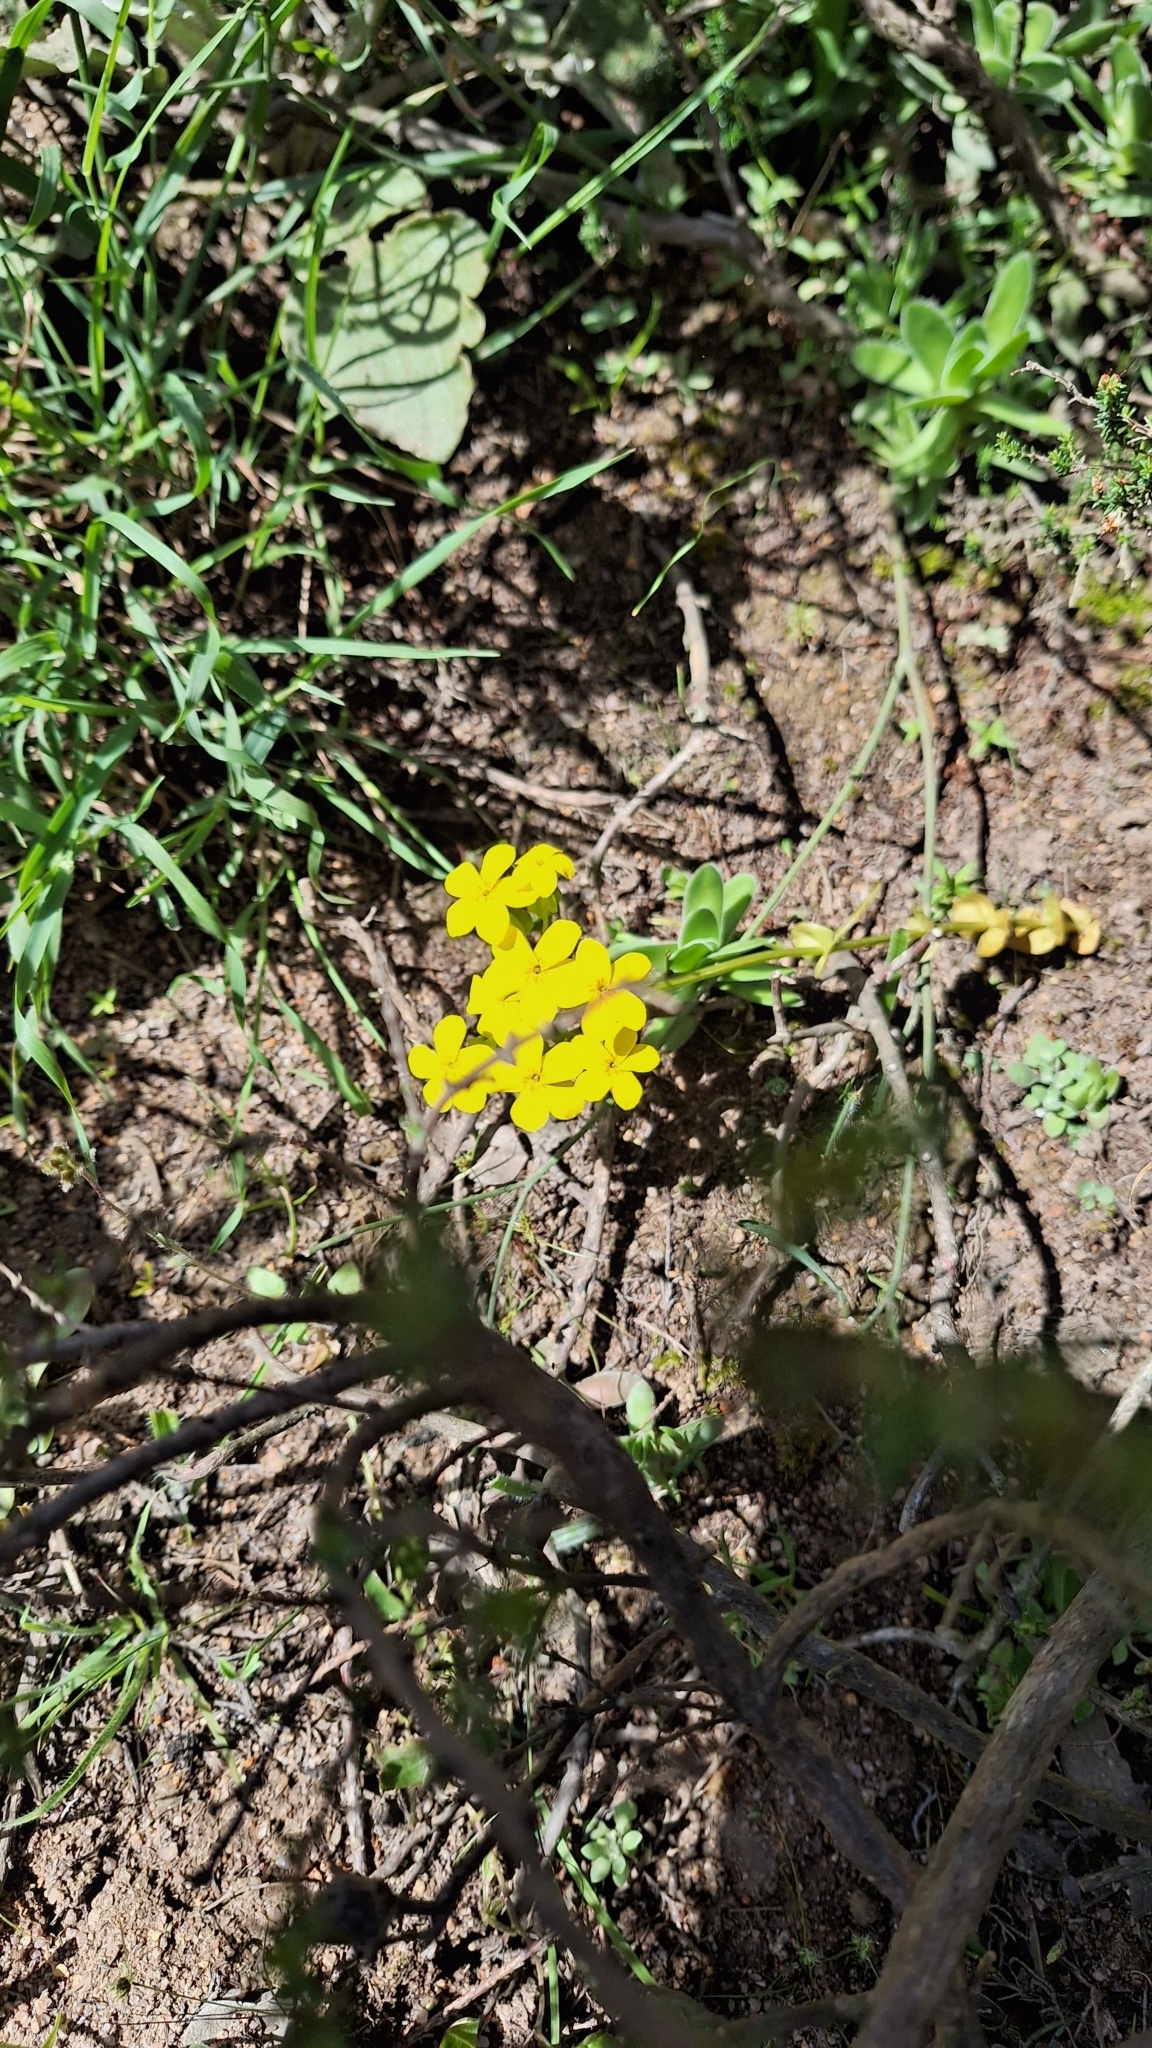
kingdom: Plantae
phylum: Tracheophyta
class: Magnoliopsida
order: Gentianales
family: Gentianaceae
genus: Sebaea
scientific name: Sebaea exacoides
